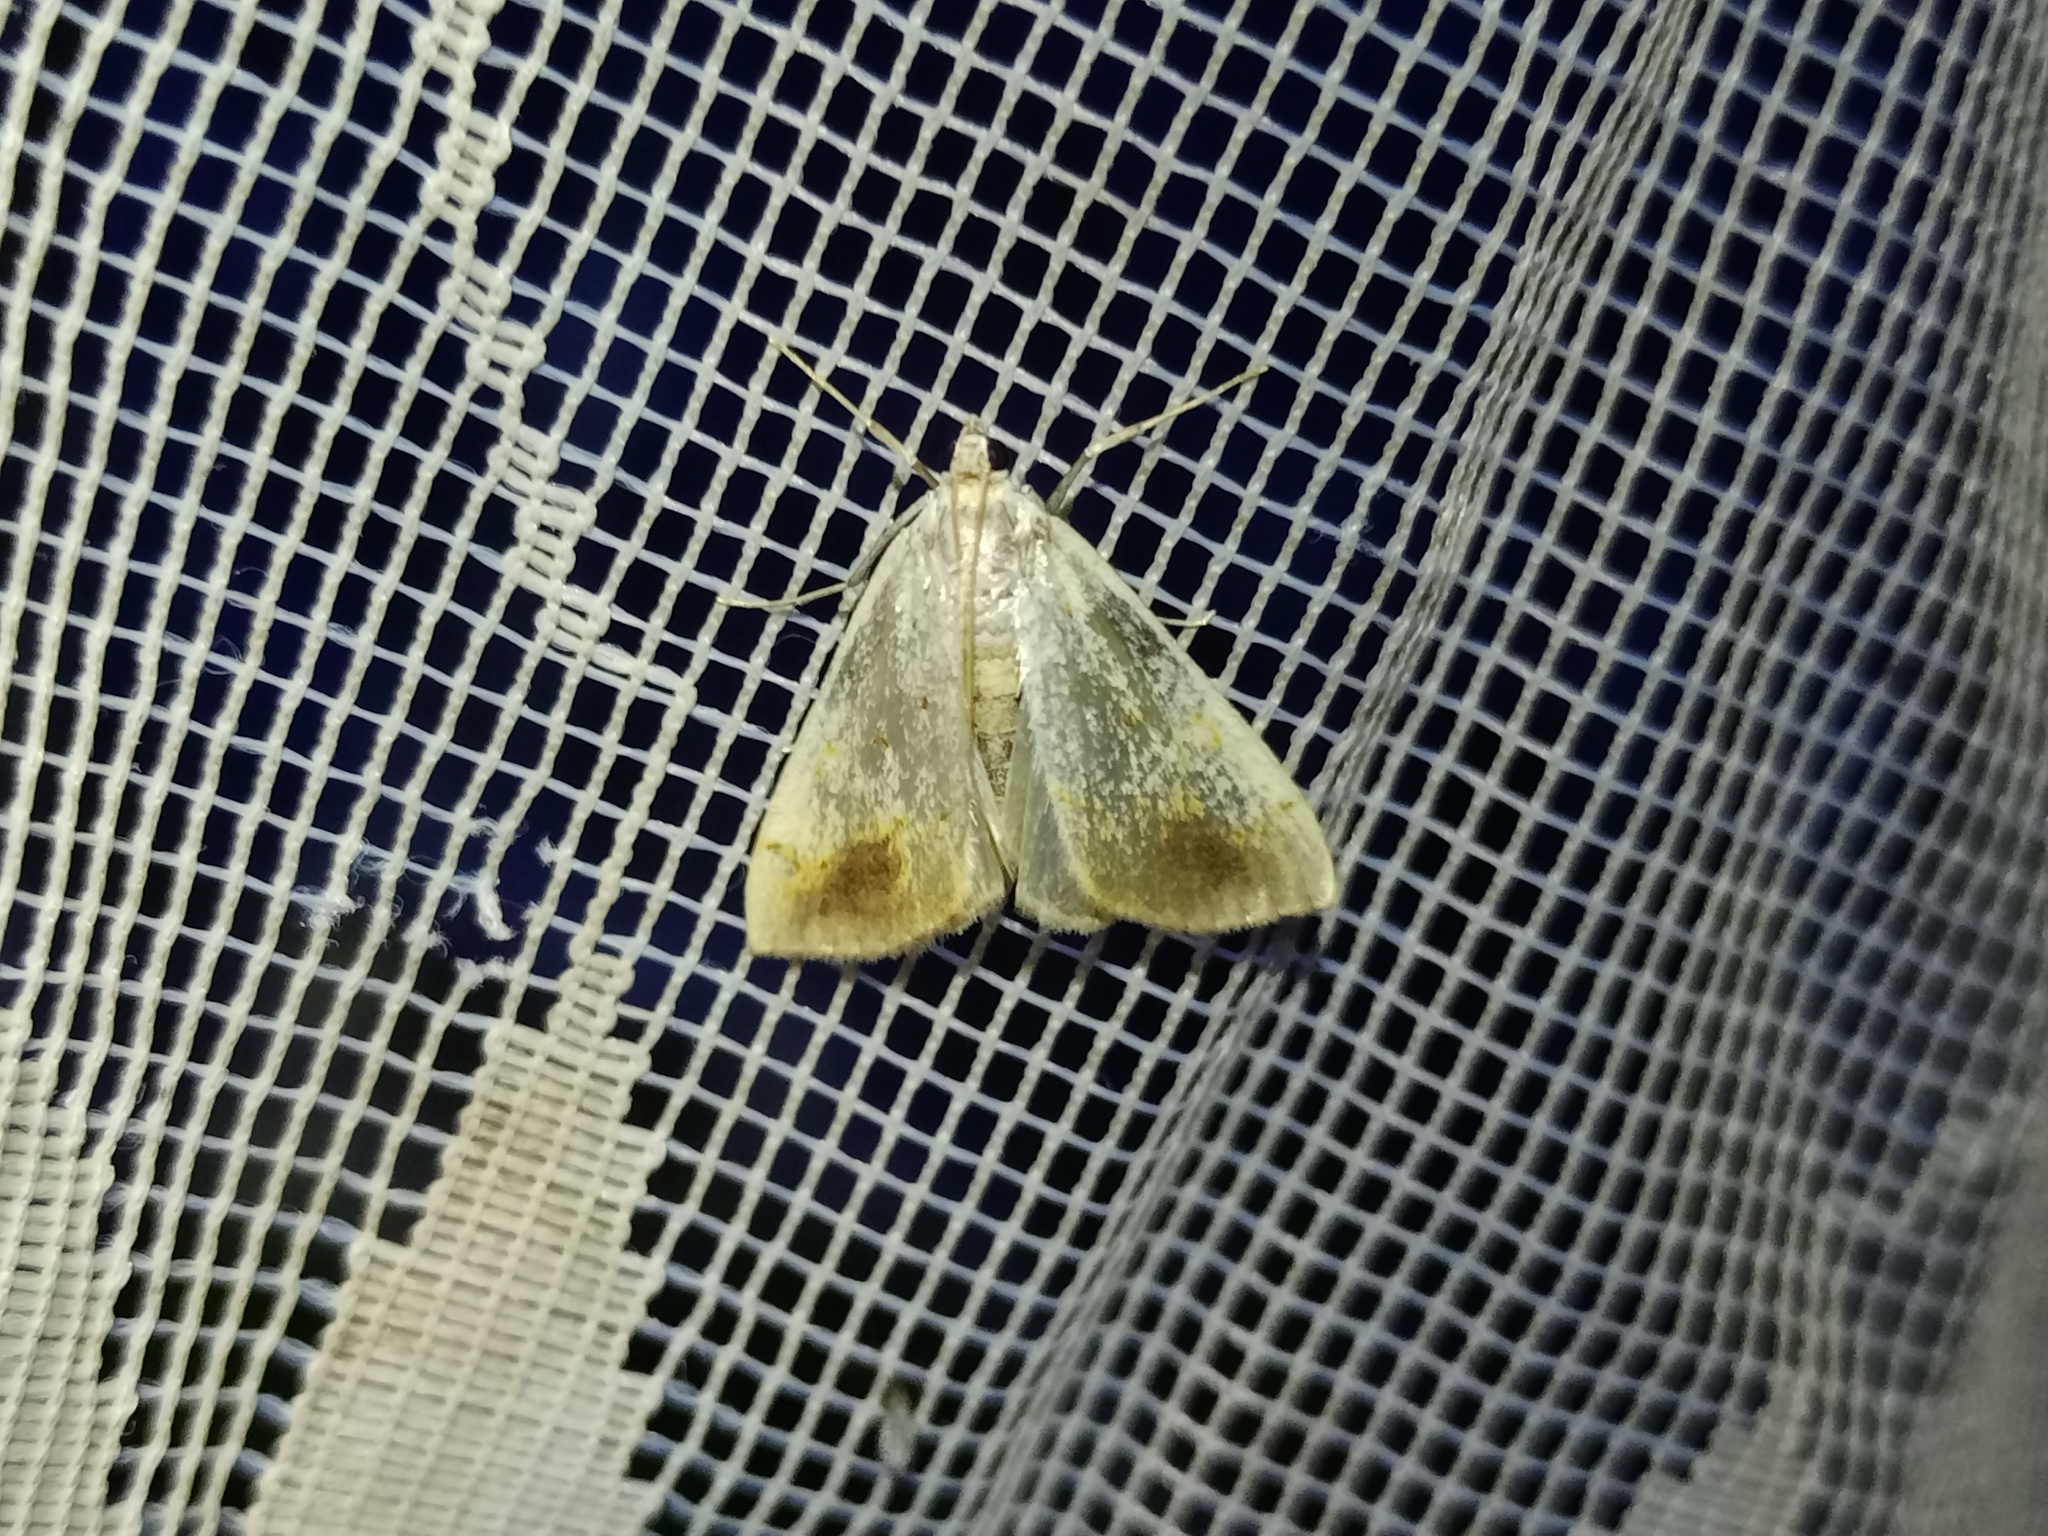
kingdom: Animalia
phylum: Arthropoda
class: Insecta
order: Lepidoptera
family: Crambidae
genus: Evergestis
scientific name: Evergestis extimalis
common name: Marbled yellow pearl
